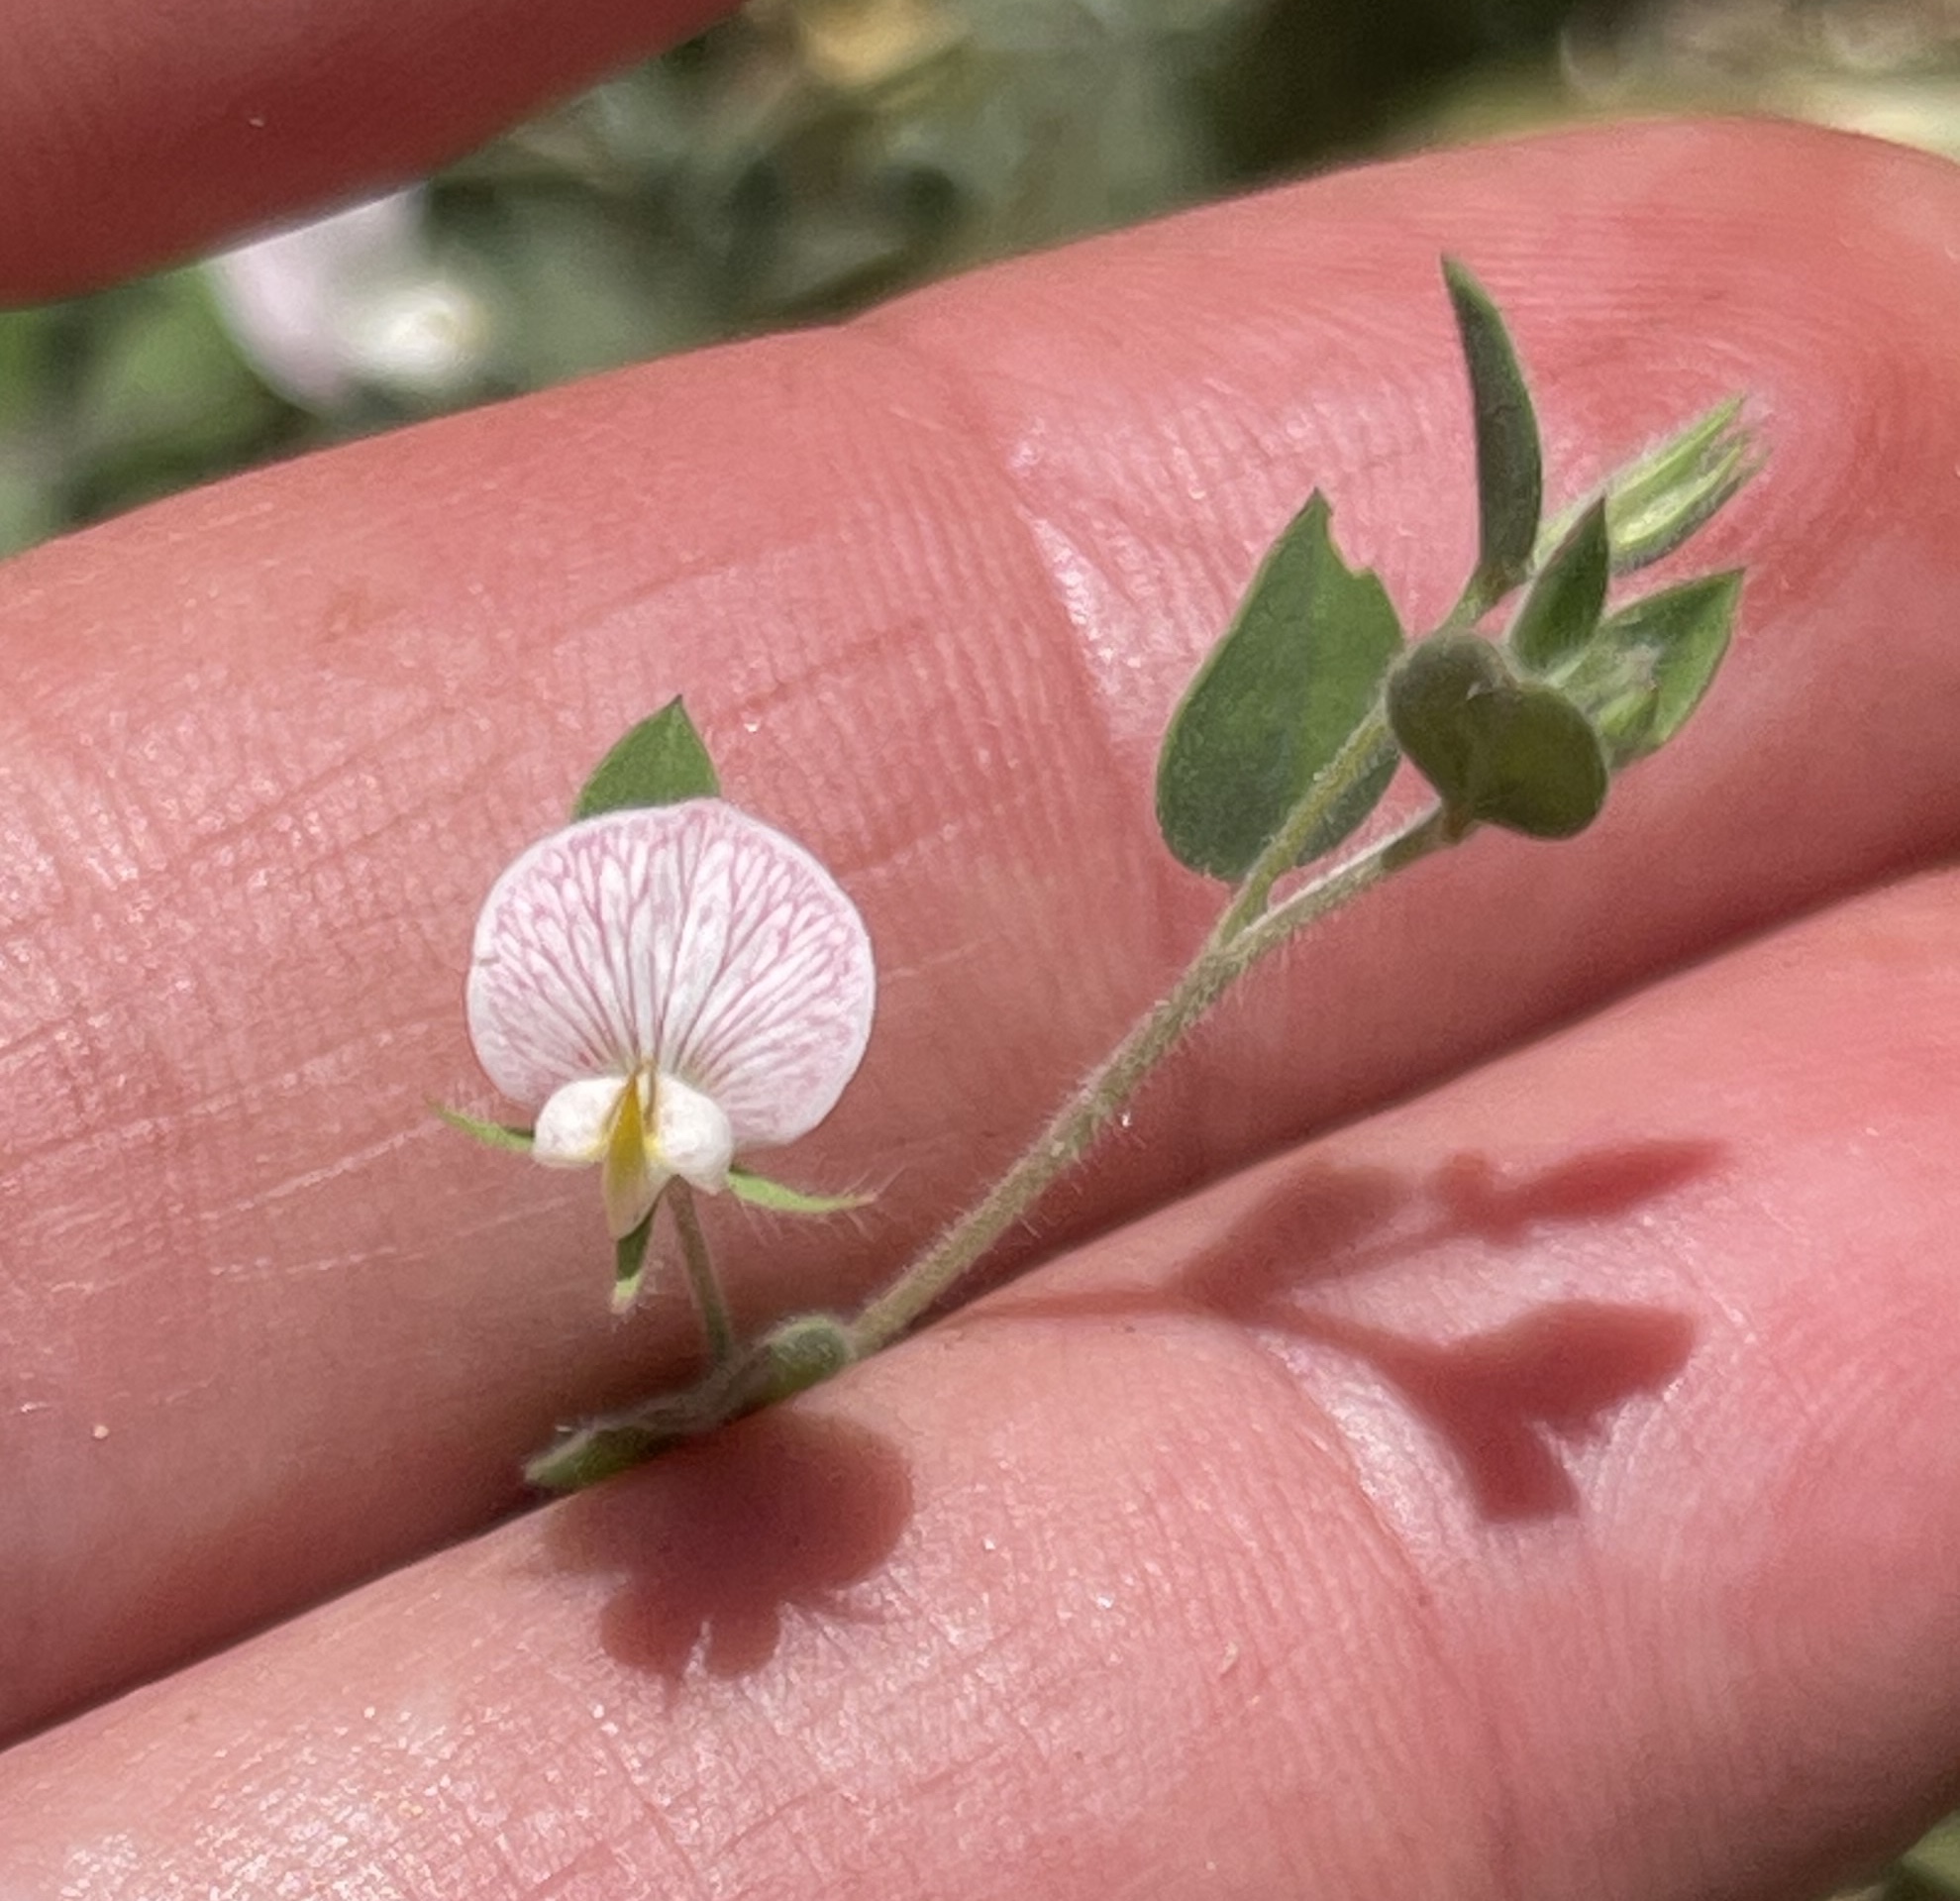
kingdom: Plantae
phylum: Tracheophyta
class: Magnoliopsida
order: Fabales
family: Fabaceae
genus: Acmispon
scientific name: Acmispon americanus
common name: American bird's-foot trefoil
